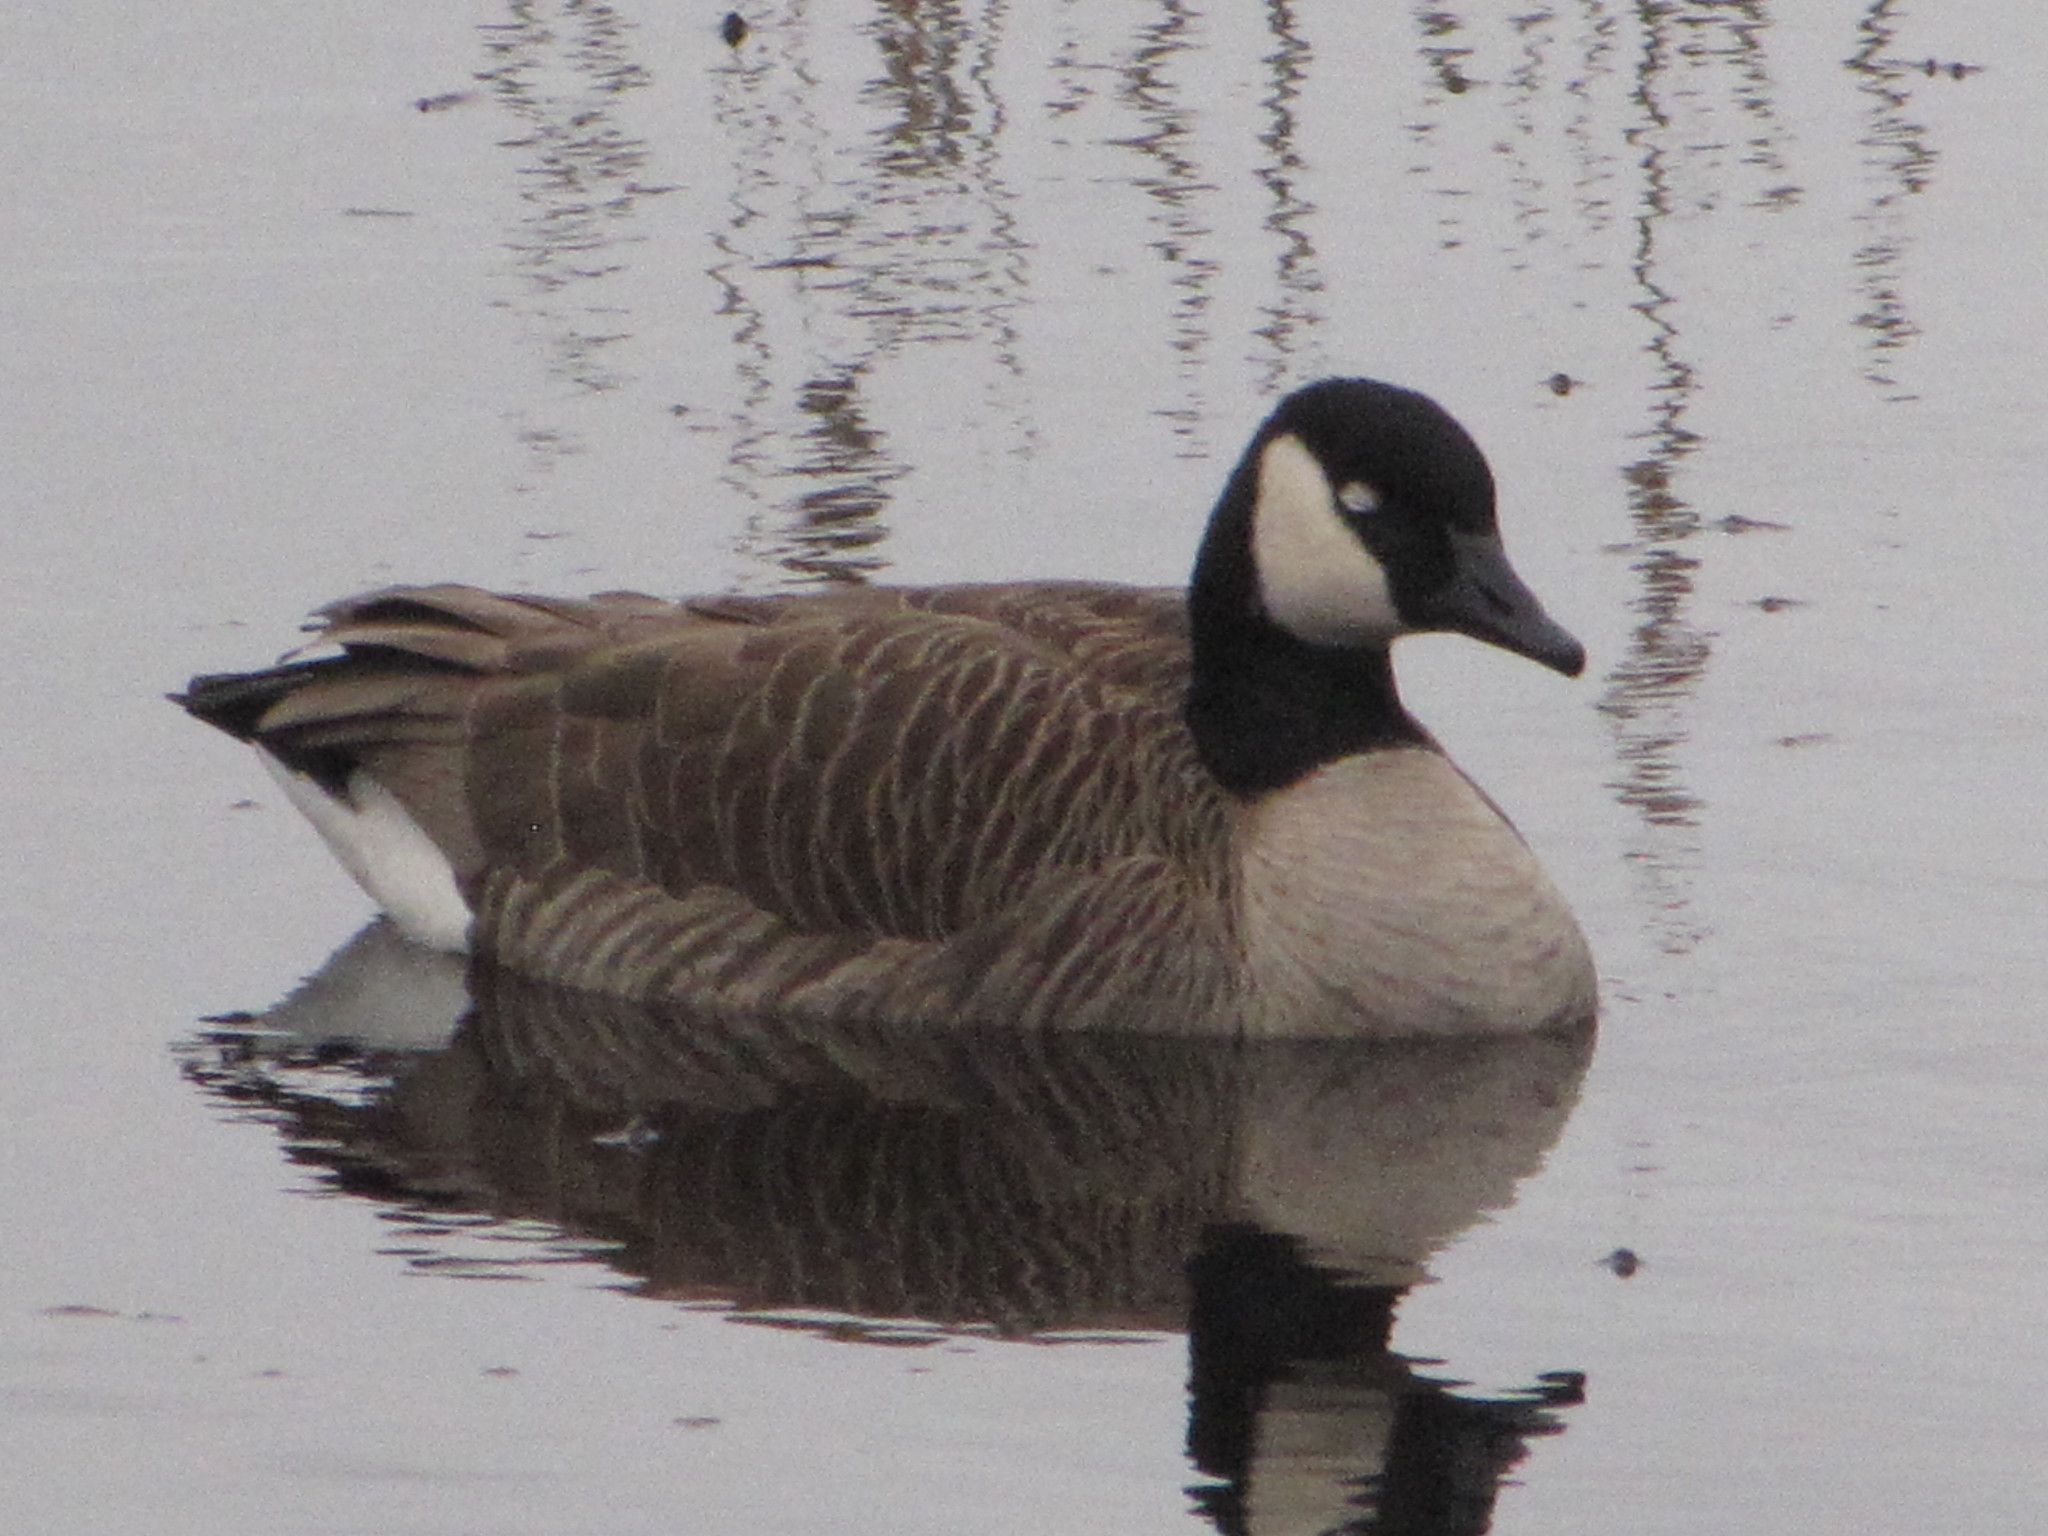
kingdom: Animalia
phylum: Chordata
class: Aves
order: Anseriformes
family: Anatidae
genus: Branta
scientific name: Branta canadensis
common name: Canada goose
